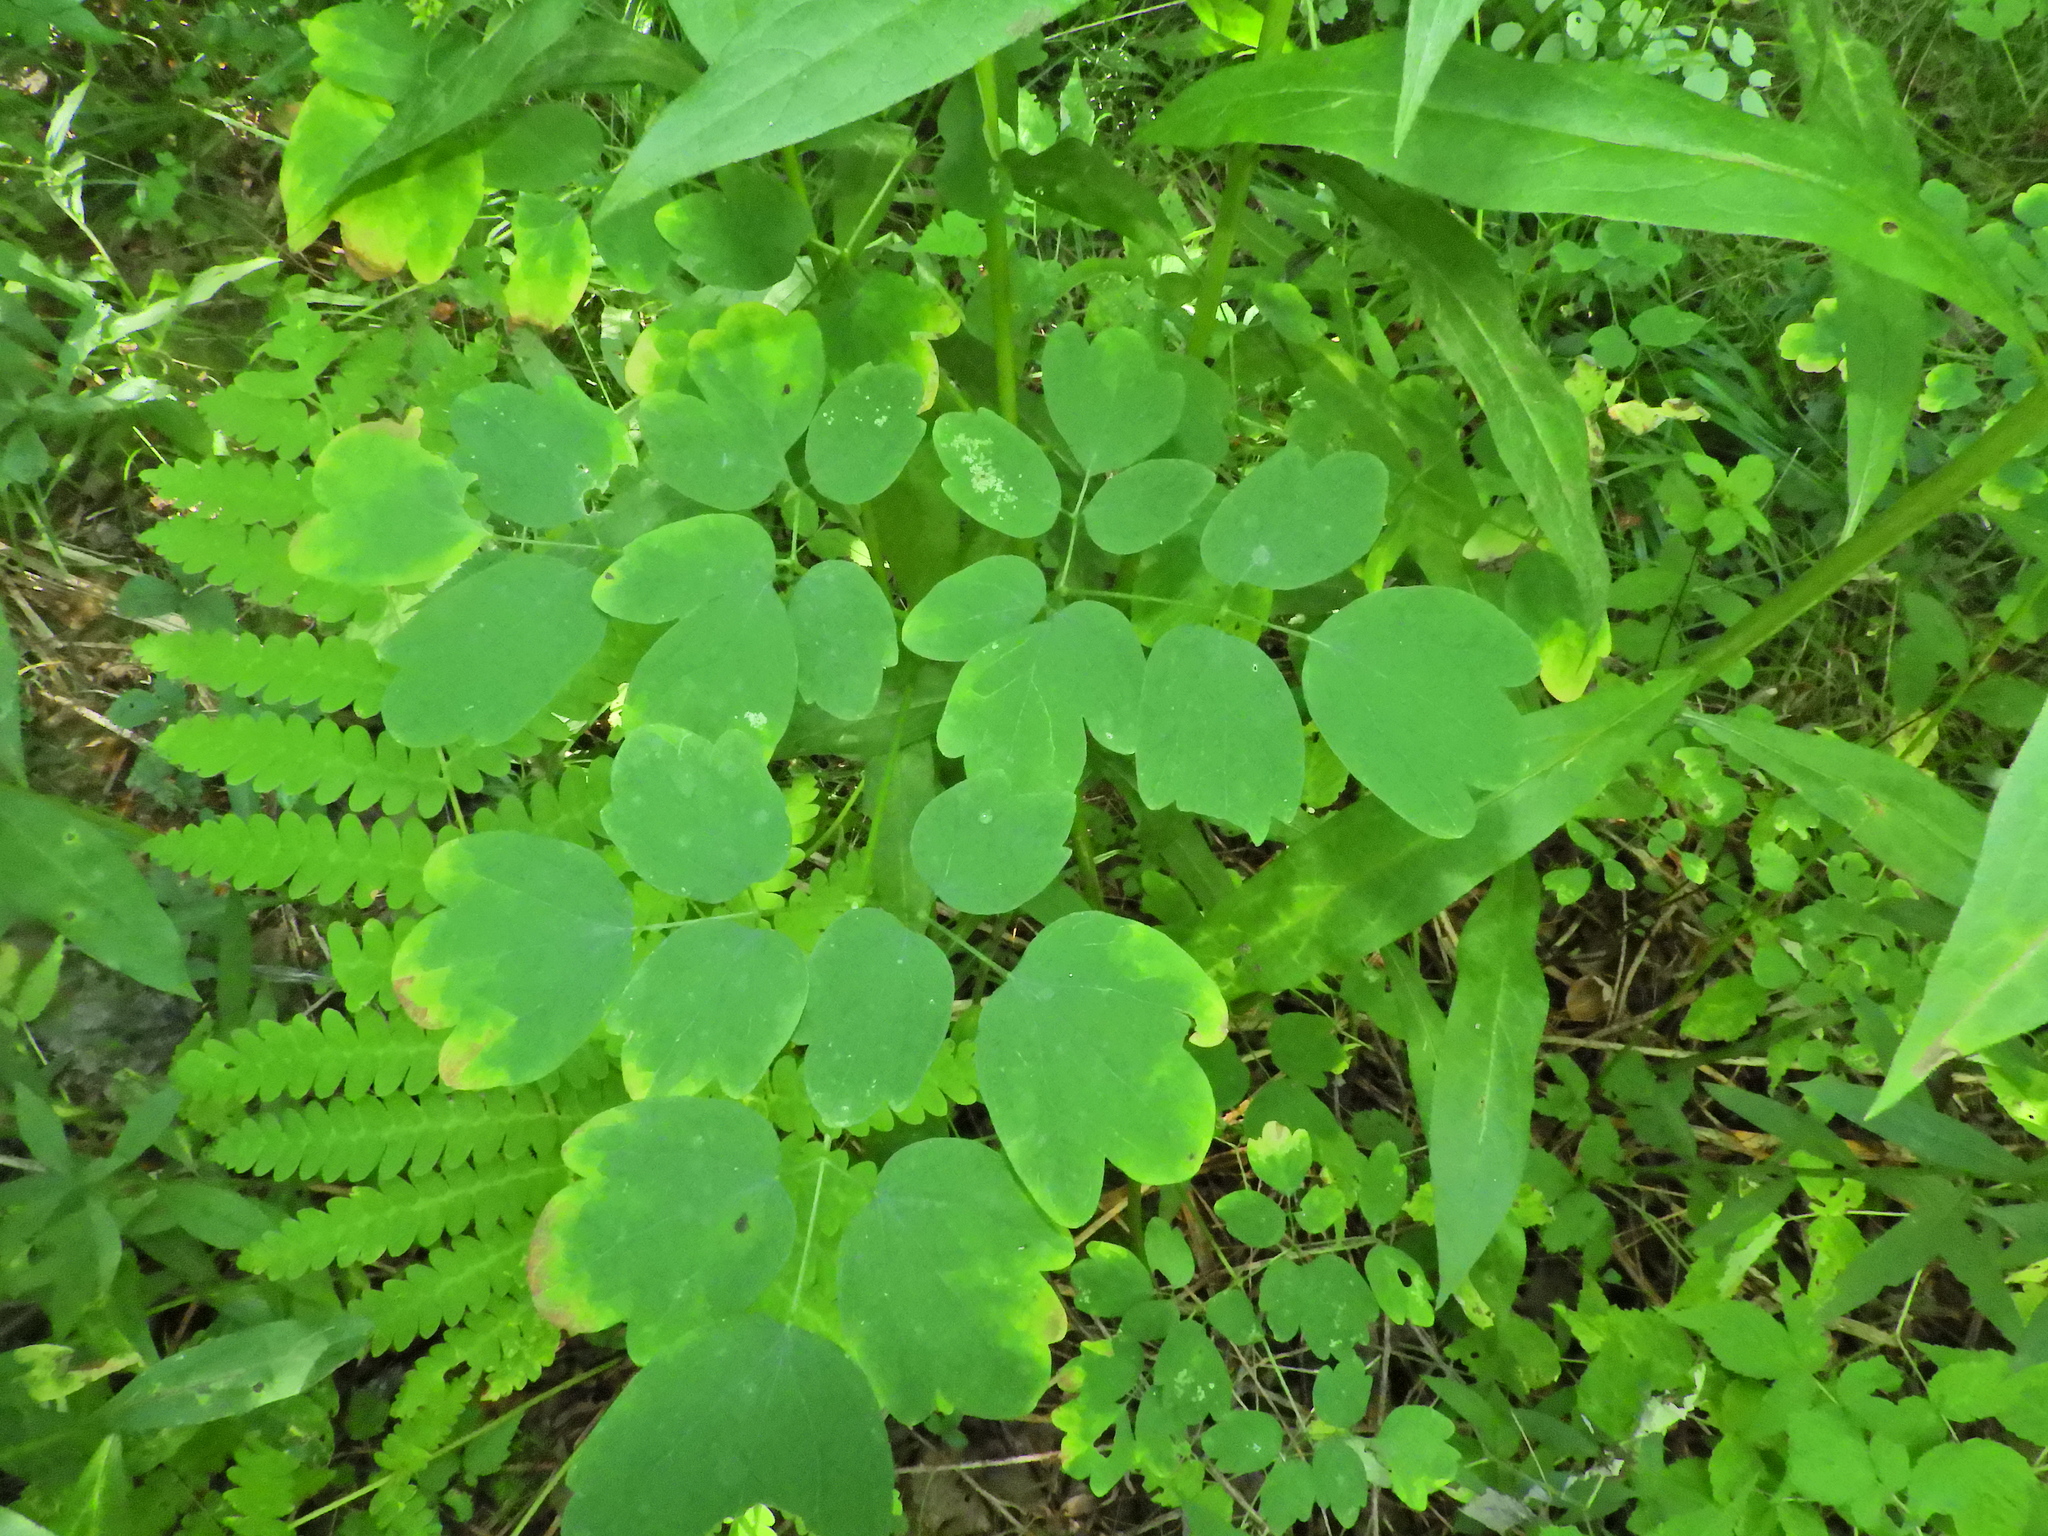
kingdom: Plantae
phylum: Tracheophyta
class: Magnoliopsida
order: Ranunculales
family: Ranunculaceae
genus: Thalictrum
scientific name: Thalictrum pubescens
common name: King-of-the-meadow
